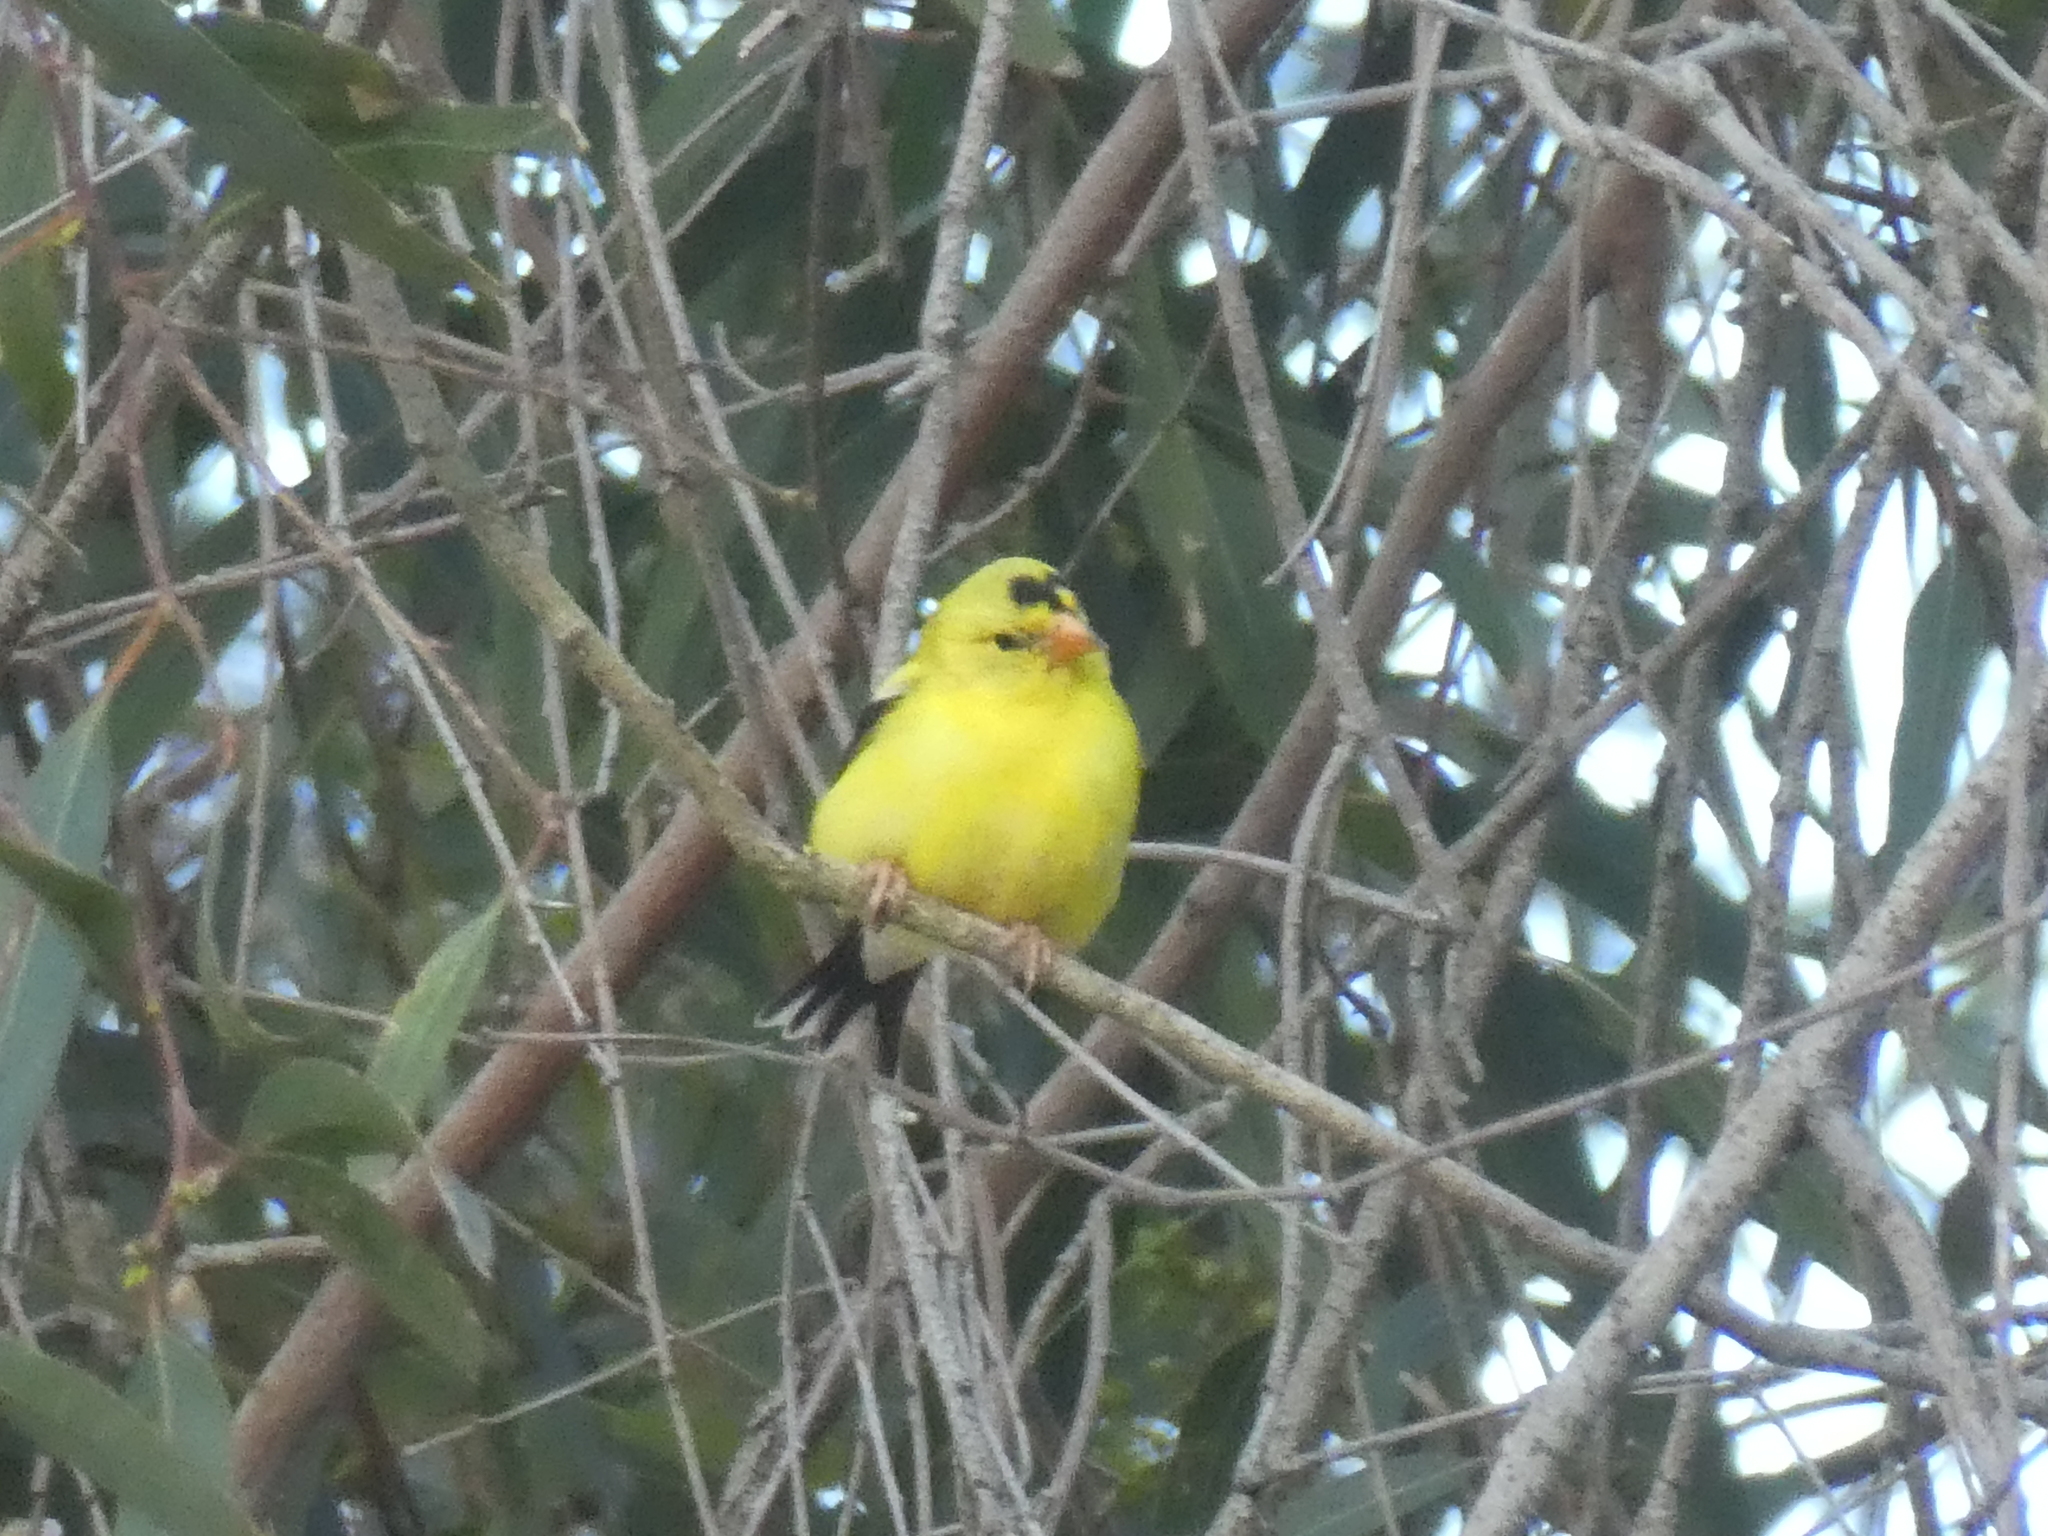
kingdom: Animalia
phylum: Chordata
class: Aves
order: Passeriformes
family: Fringillidae
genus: Spinus
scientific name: Spinus tristis
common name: American goldfinch
